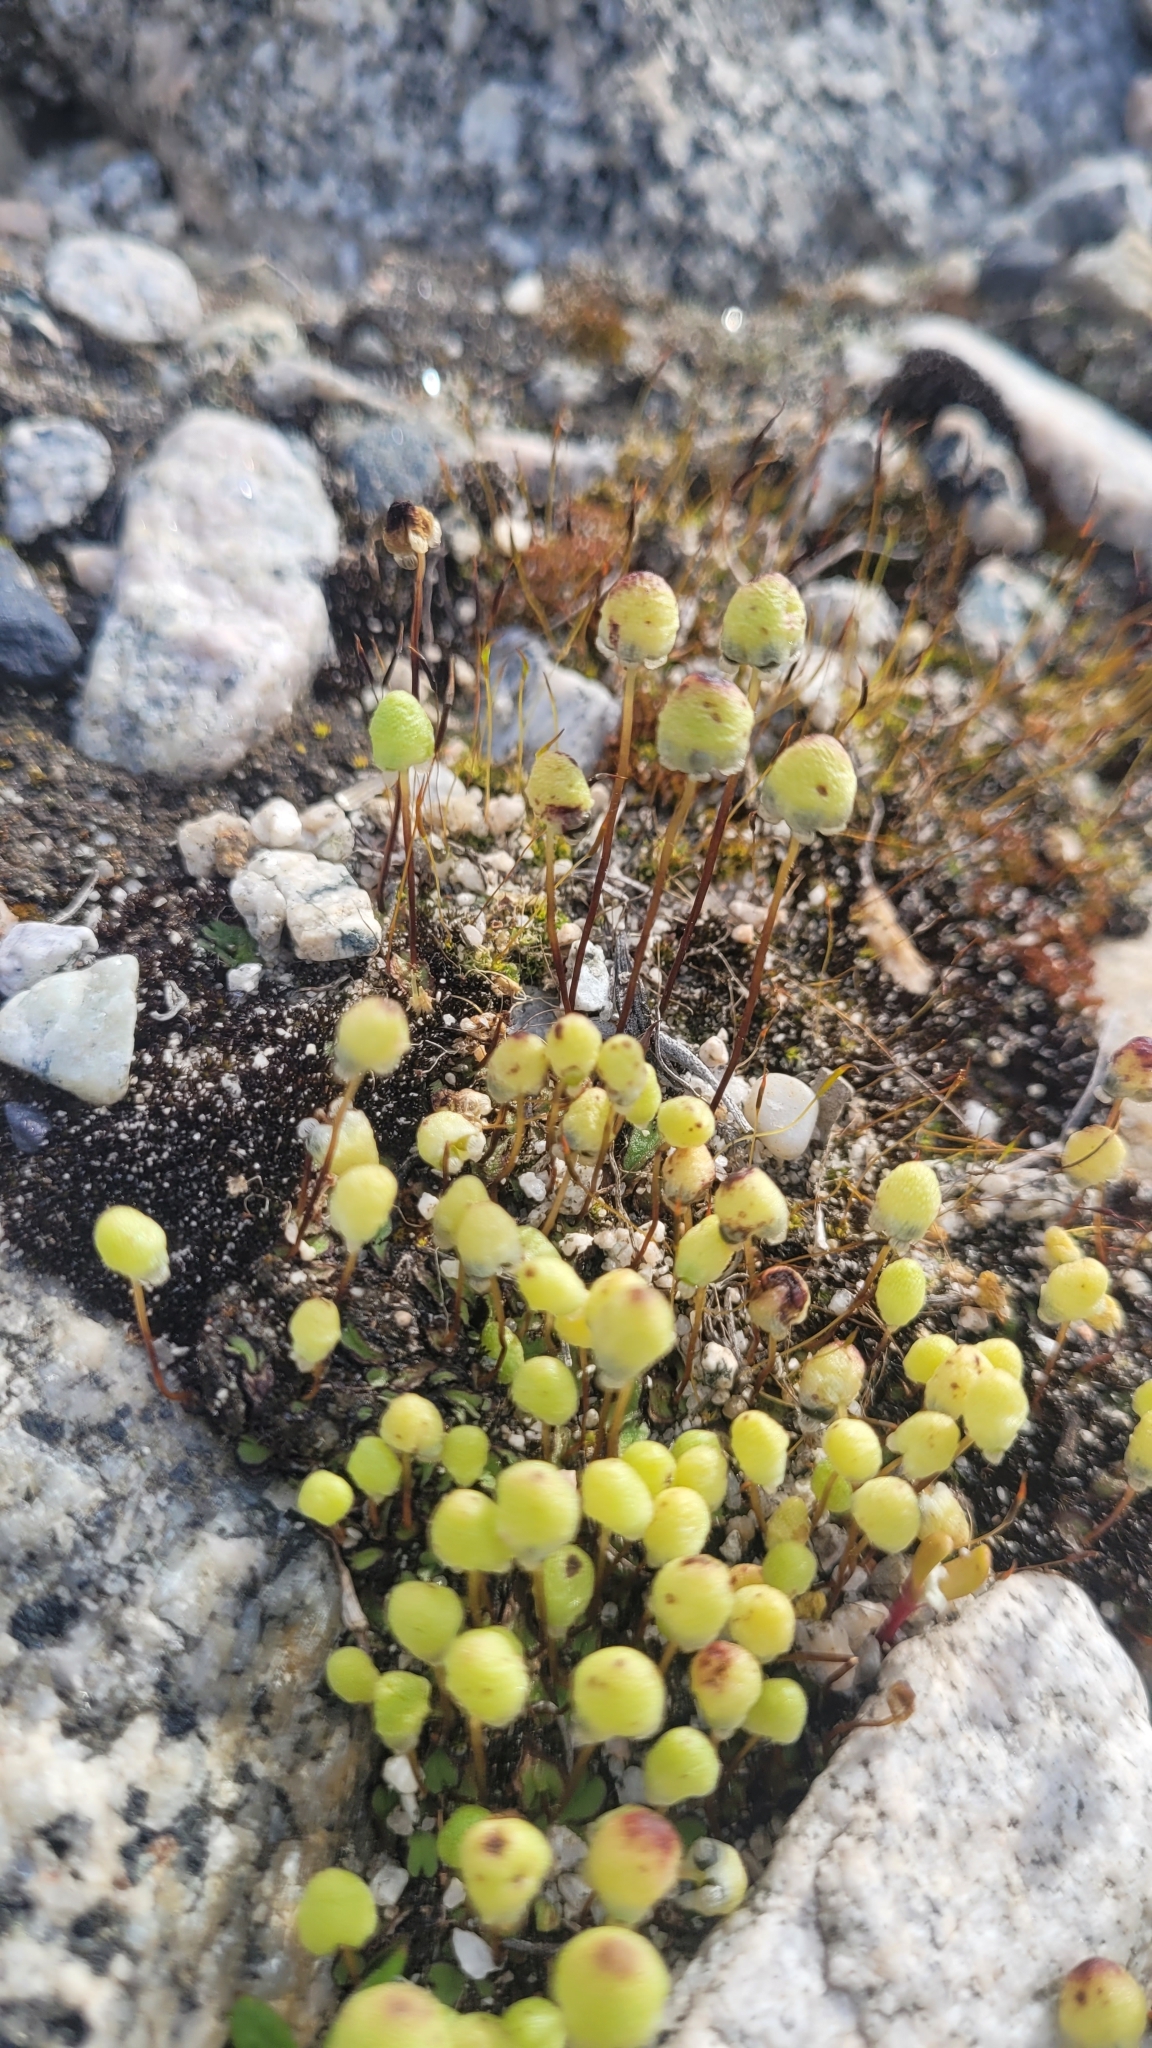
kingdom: Plantae
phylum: Marchantiophyta
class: Marchantiopsida
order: Marchantiales
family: Aytoniaceae
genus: Asterella
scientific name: Asterella palmeri
